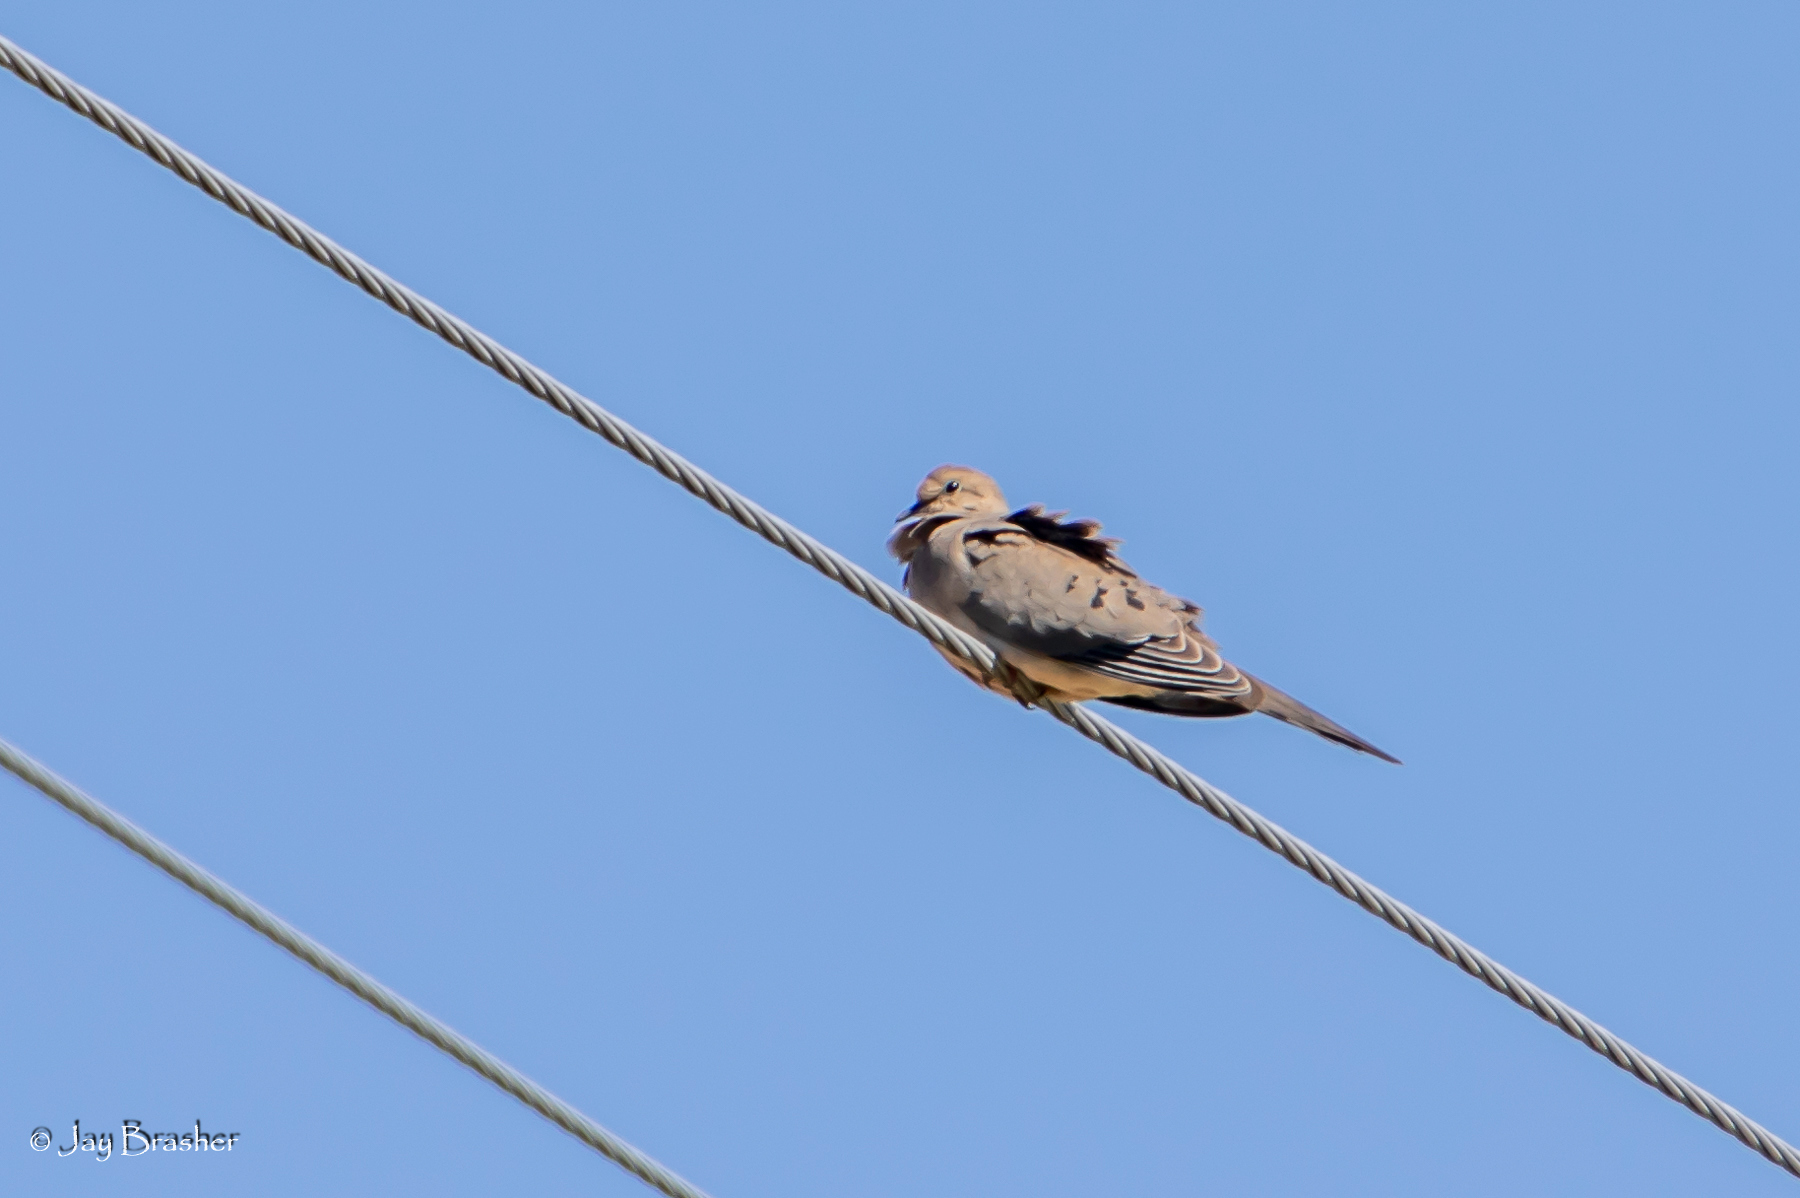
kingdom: Animalia
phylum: Chordata
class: Aves
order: Columbiformes
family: Columbidae
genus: Zenaida
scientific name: Zenaida macroura
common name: Mourning dove
